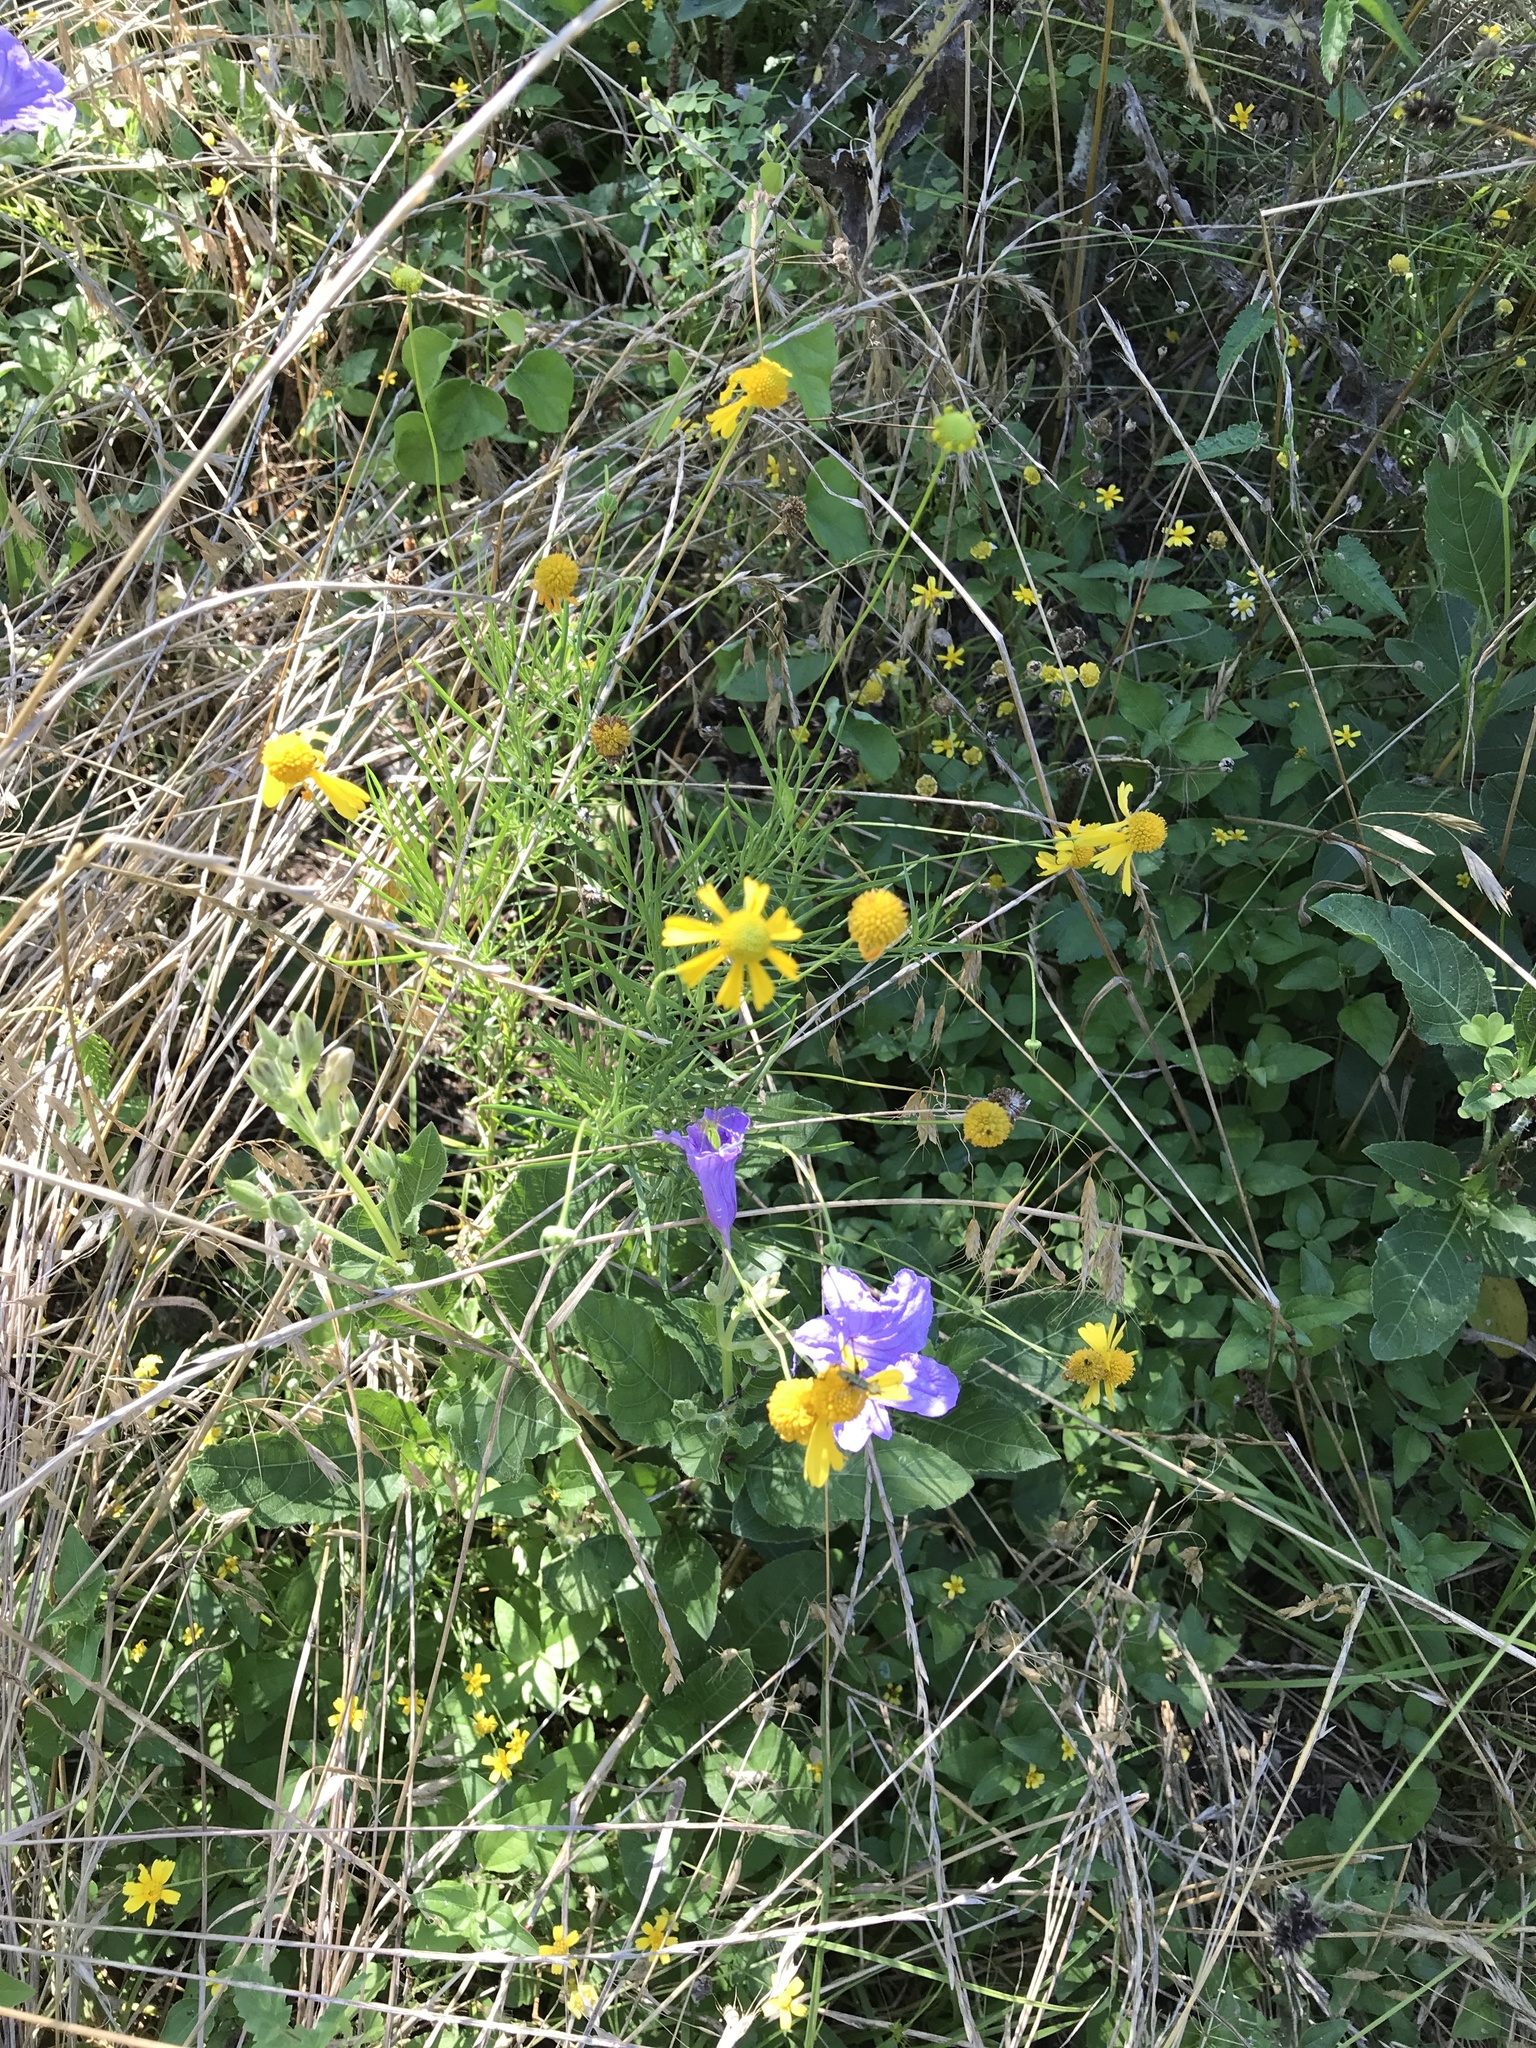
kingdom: Plantae
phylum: Tracheophyta
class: Magnoliopsida
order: Asterales
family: Asteraceae
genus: Helenium
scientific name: Helenium amarum
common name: Bitter sneezeweed
